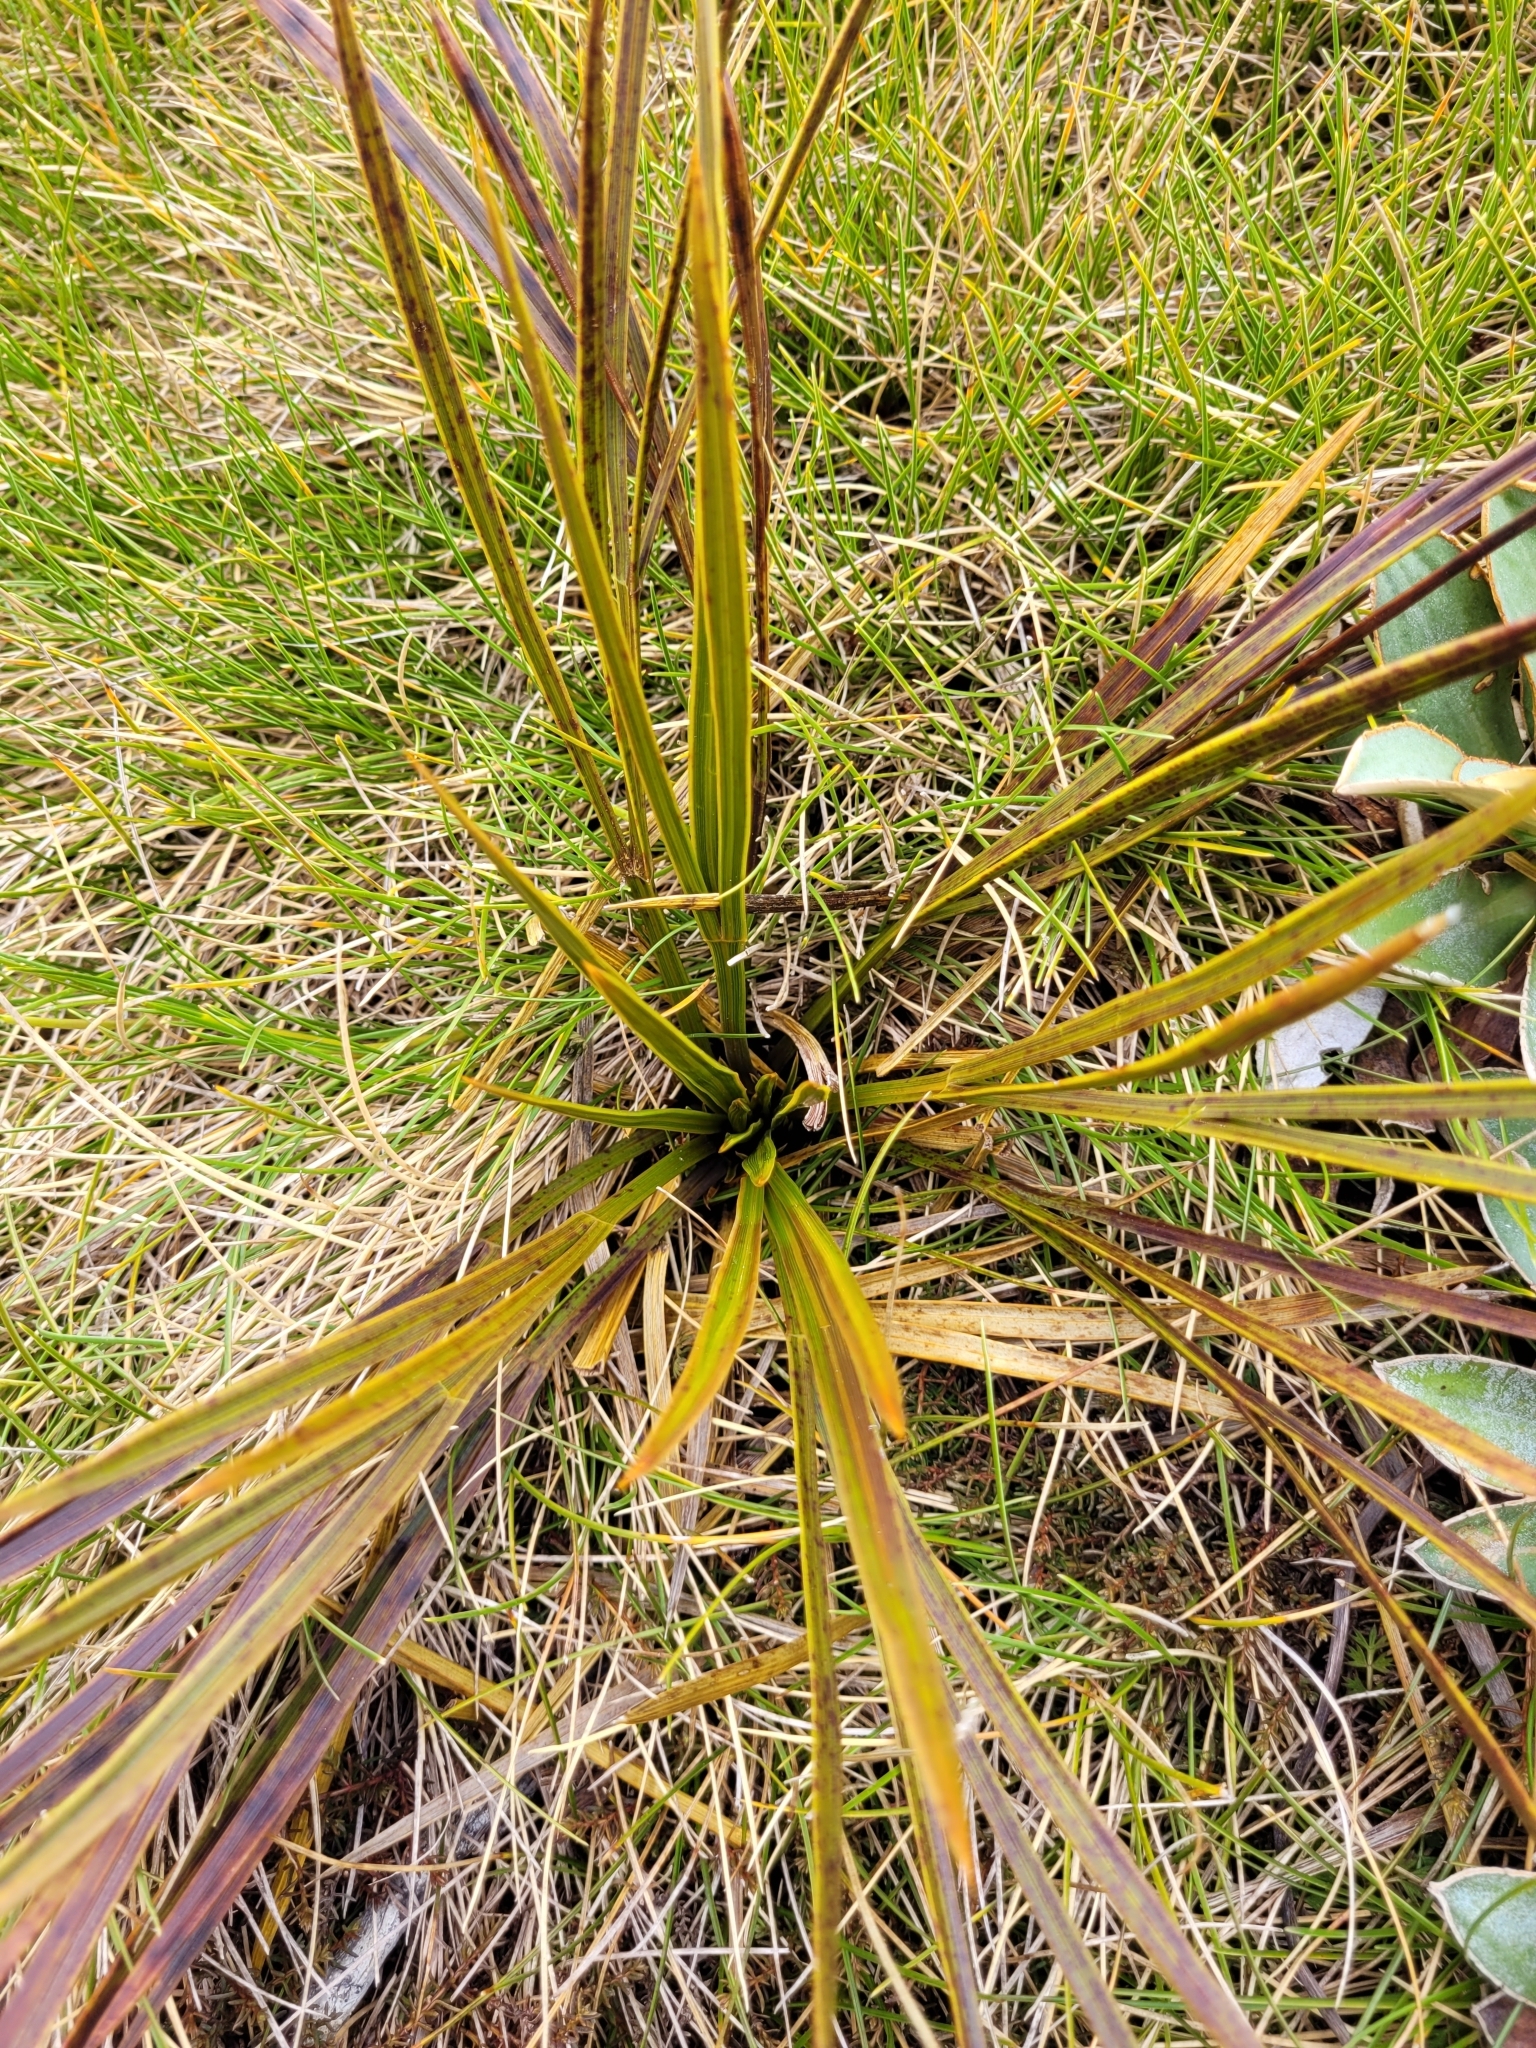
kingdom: Plantae
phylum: Tracheophyta
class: Magnoliopsida
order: Apiales
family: Apiaceae
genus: Aciphylla
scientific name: Aciphylla trifoliolata
